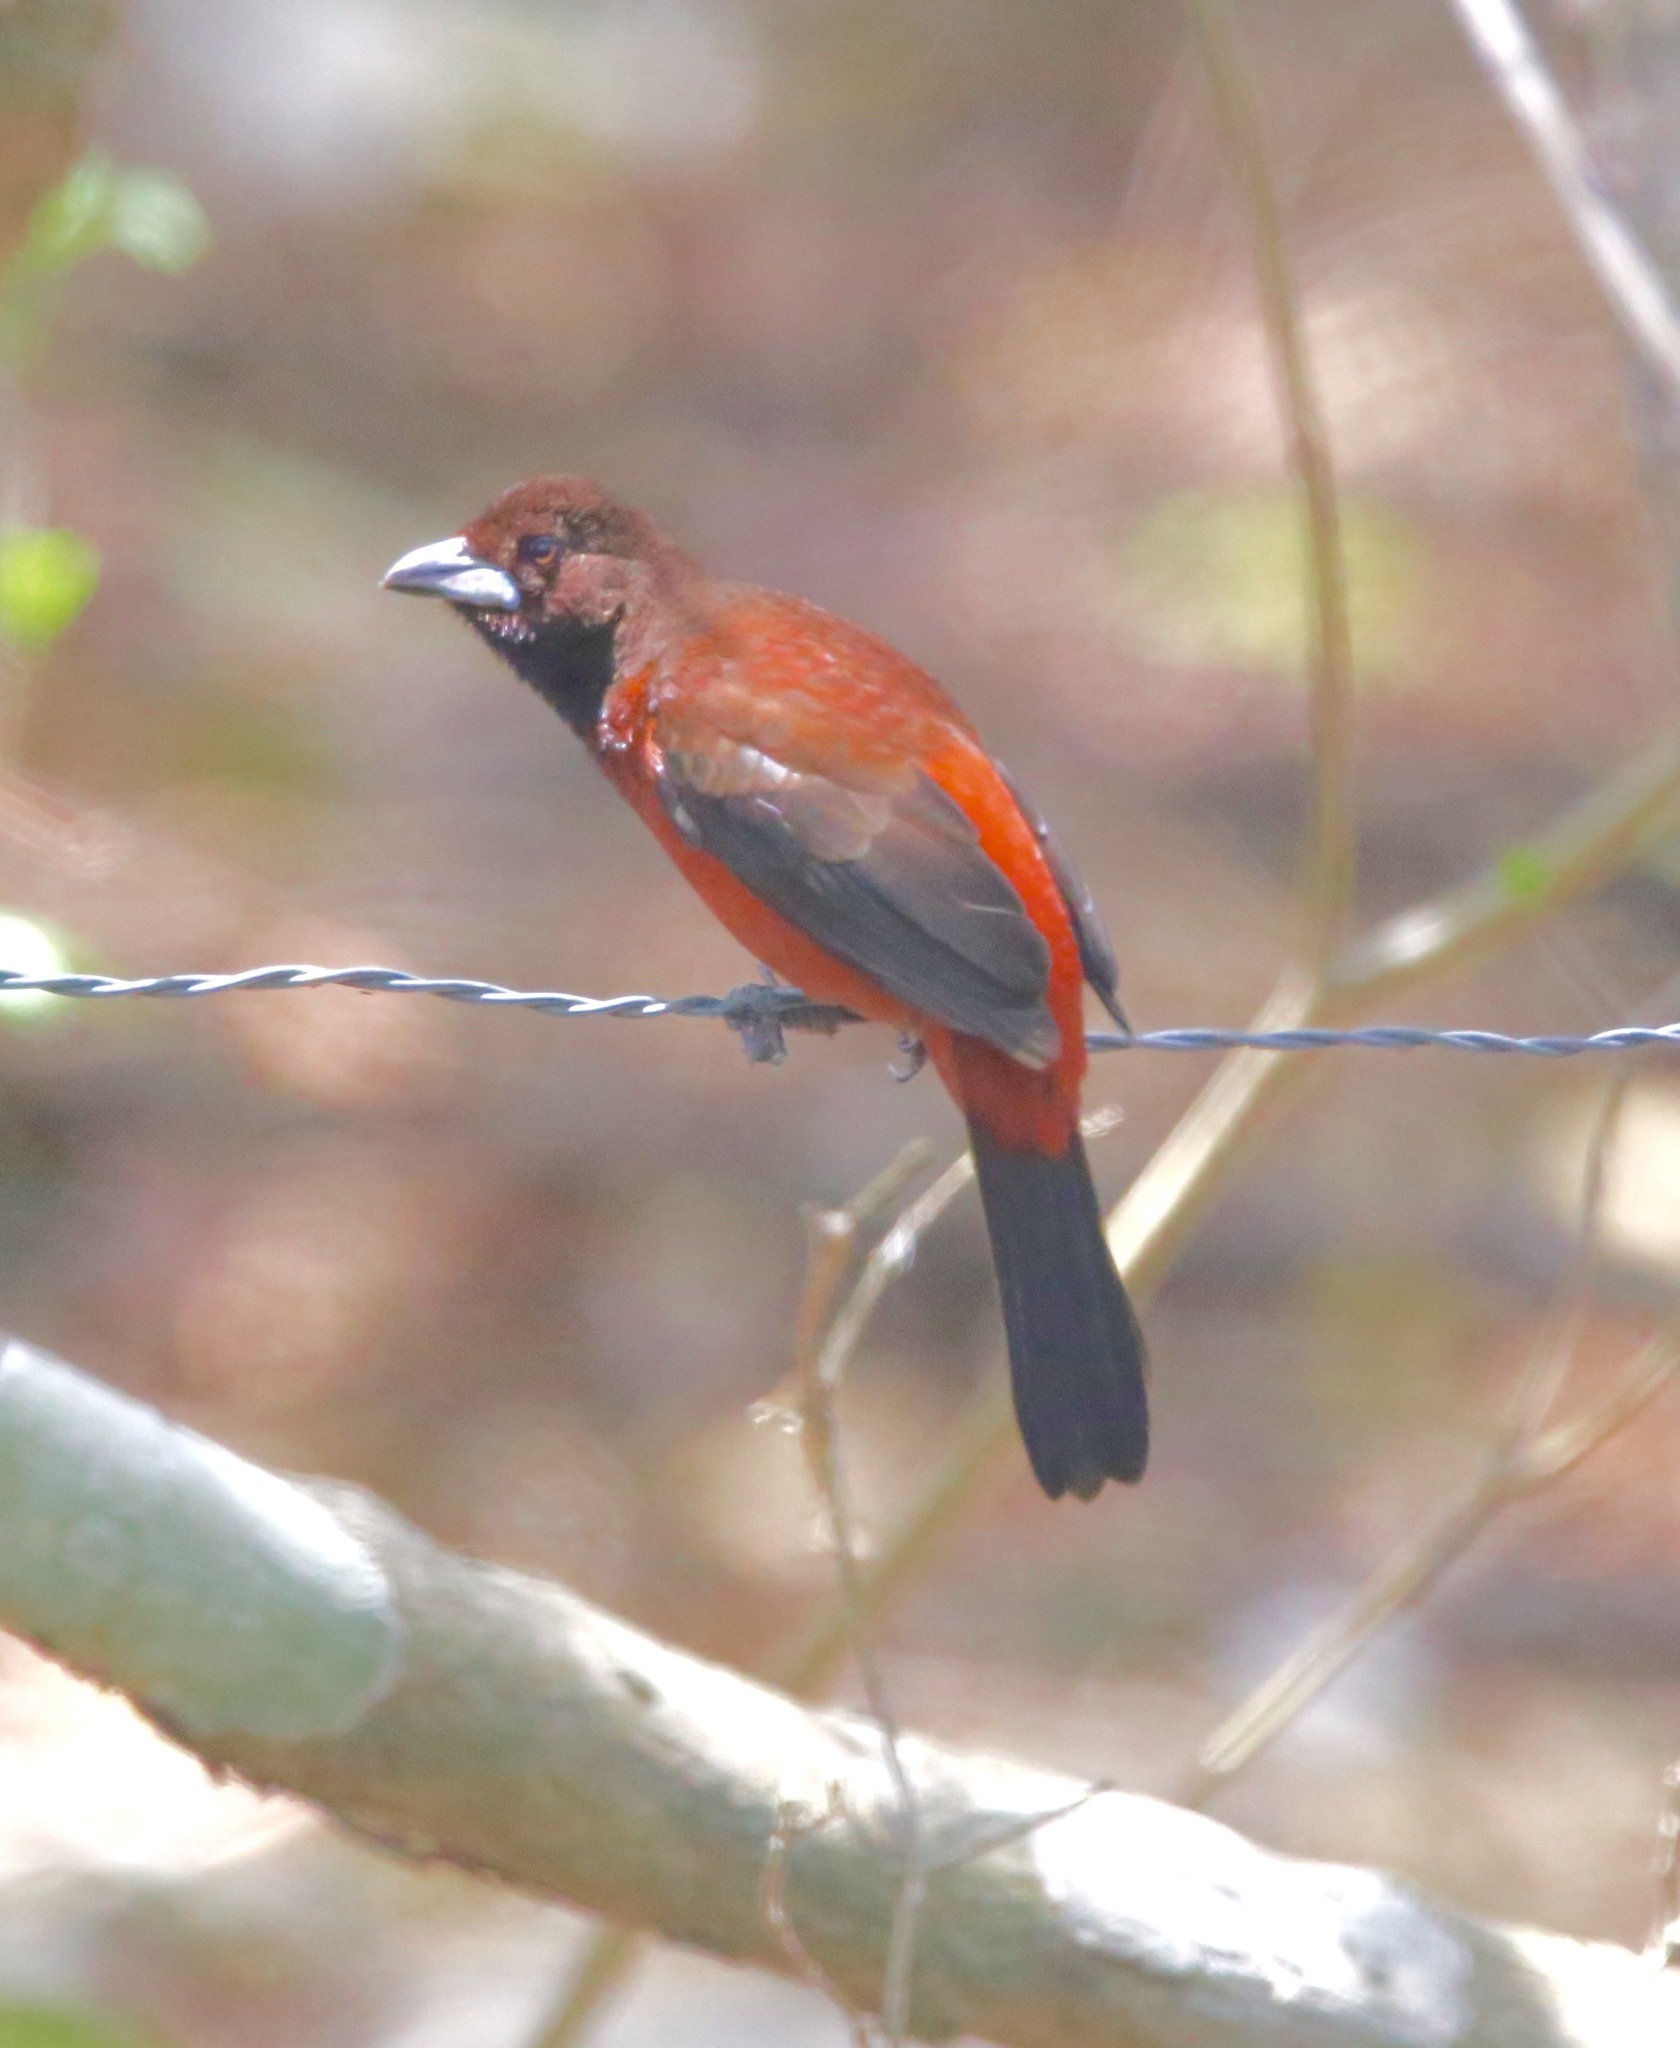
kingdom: Animalia
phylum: Chordata
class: Aves
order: Passeriformes
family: Thraupidae
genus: Ramphocelus
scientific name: Ramphocelus dimidiatus
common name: Crimson-backed tanager
